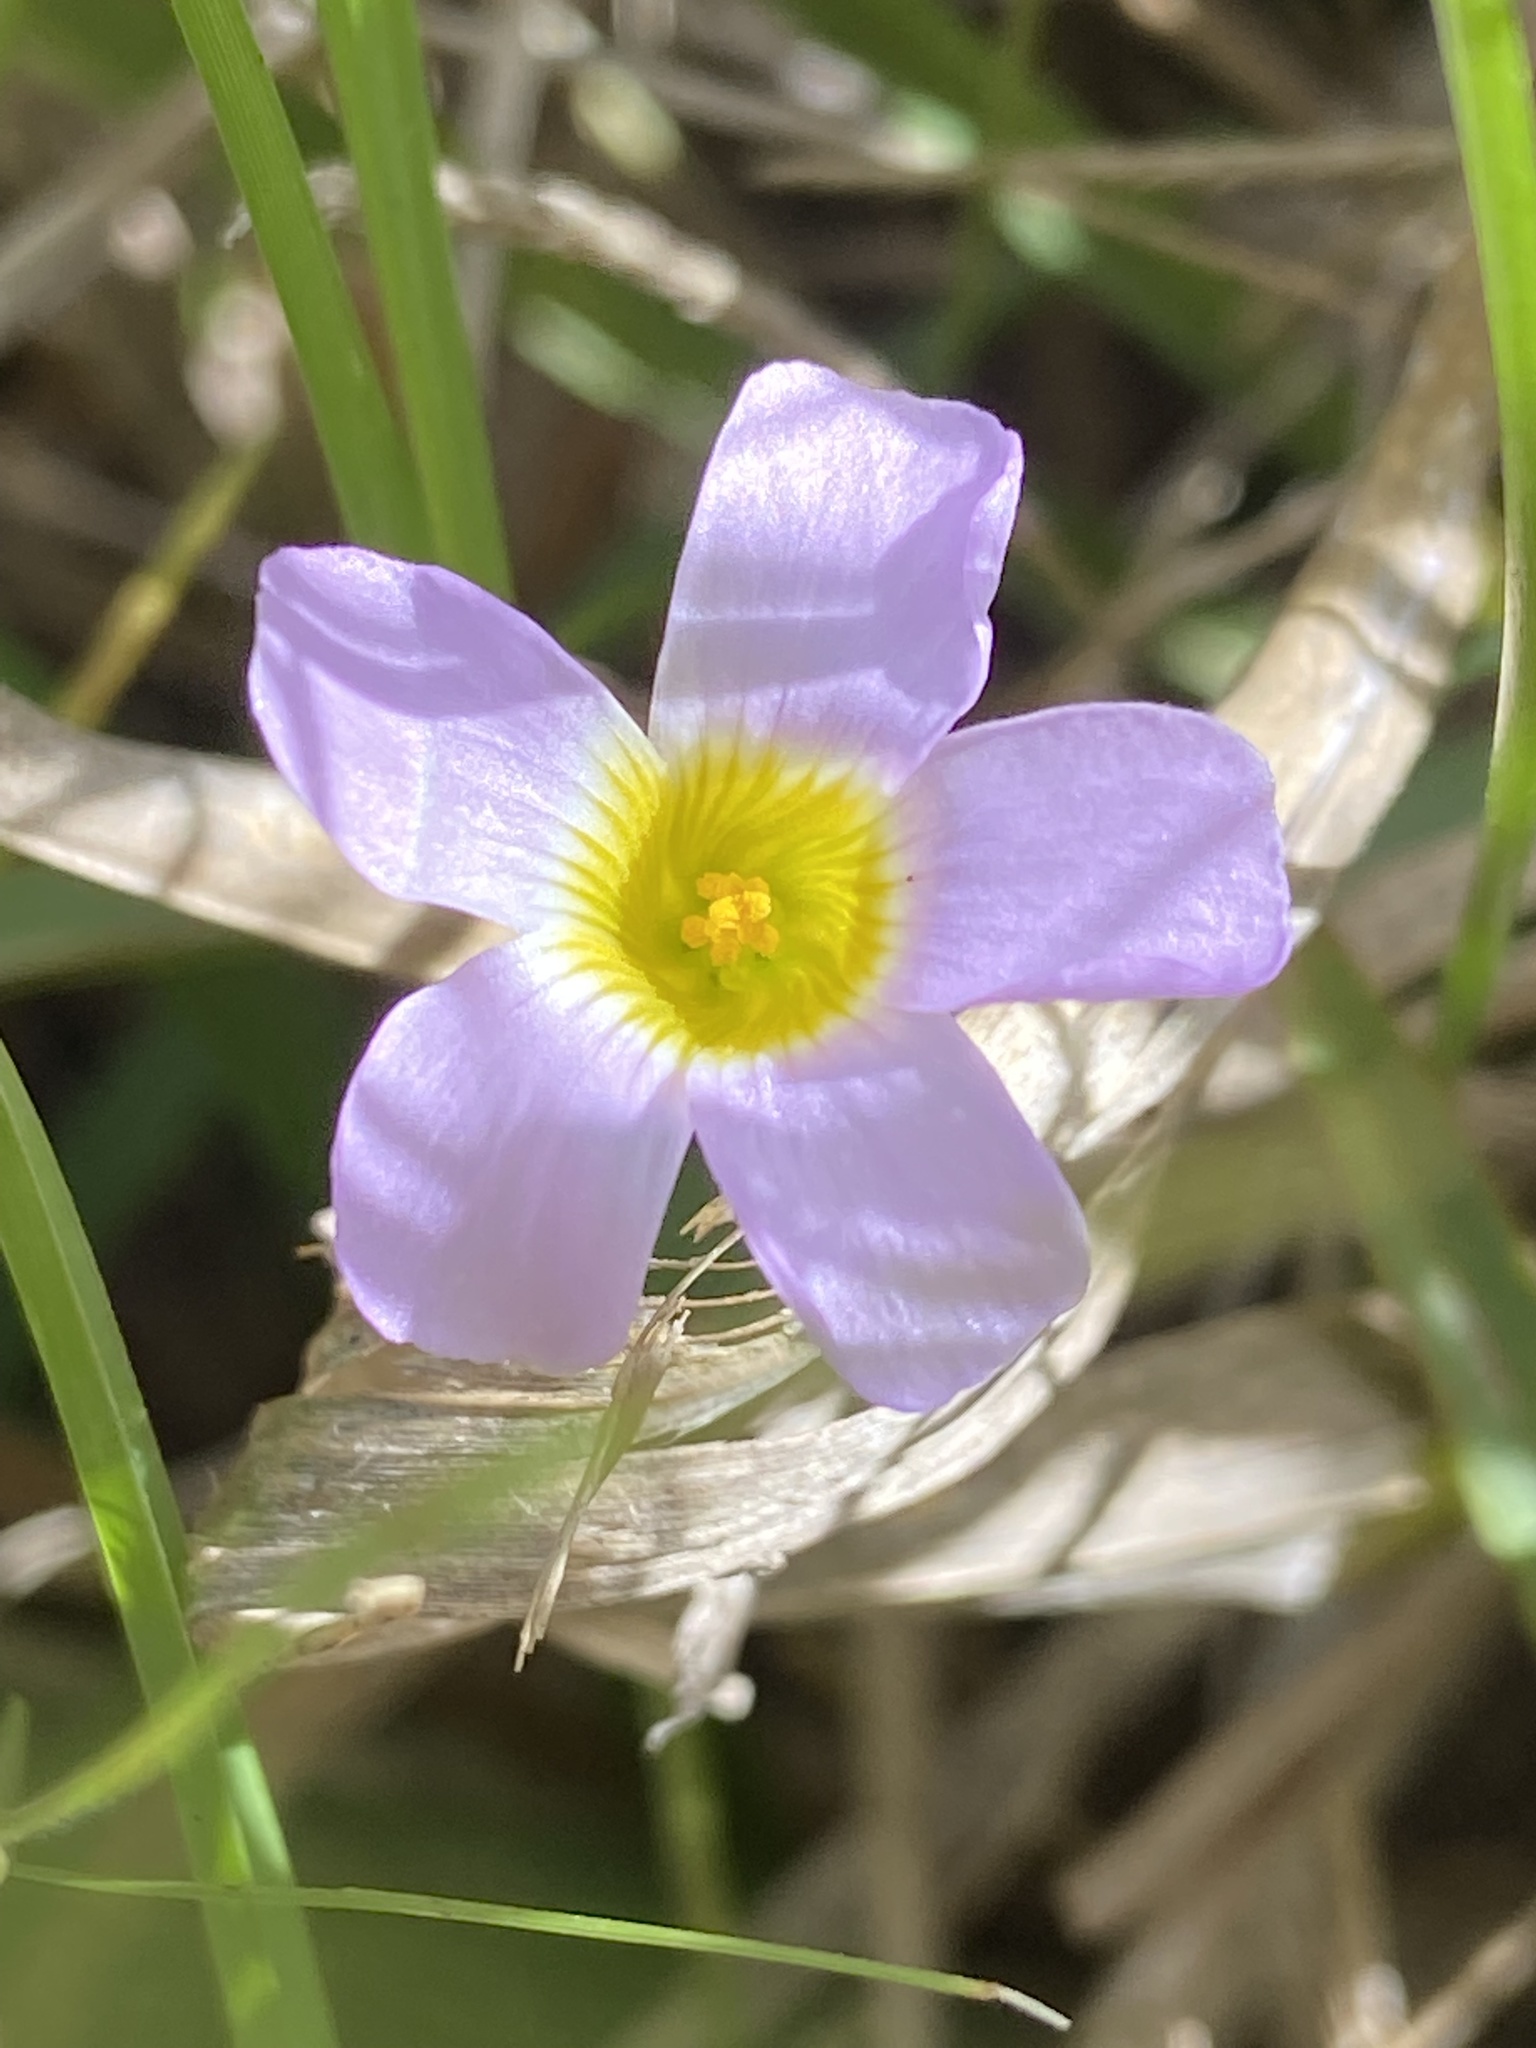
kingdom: Plantae
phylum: Tracheophyta
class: Magnoliopsida
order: Oxalidales
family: Oxalidaceae
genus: Oxalis
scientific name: Oxalis caprina
